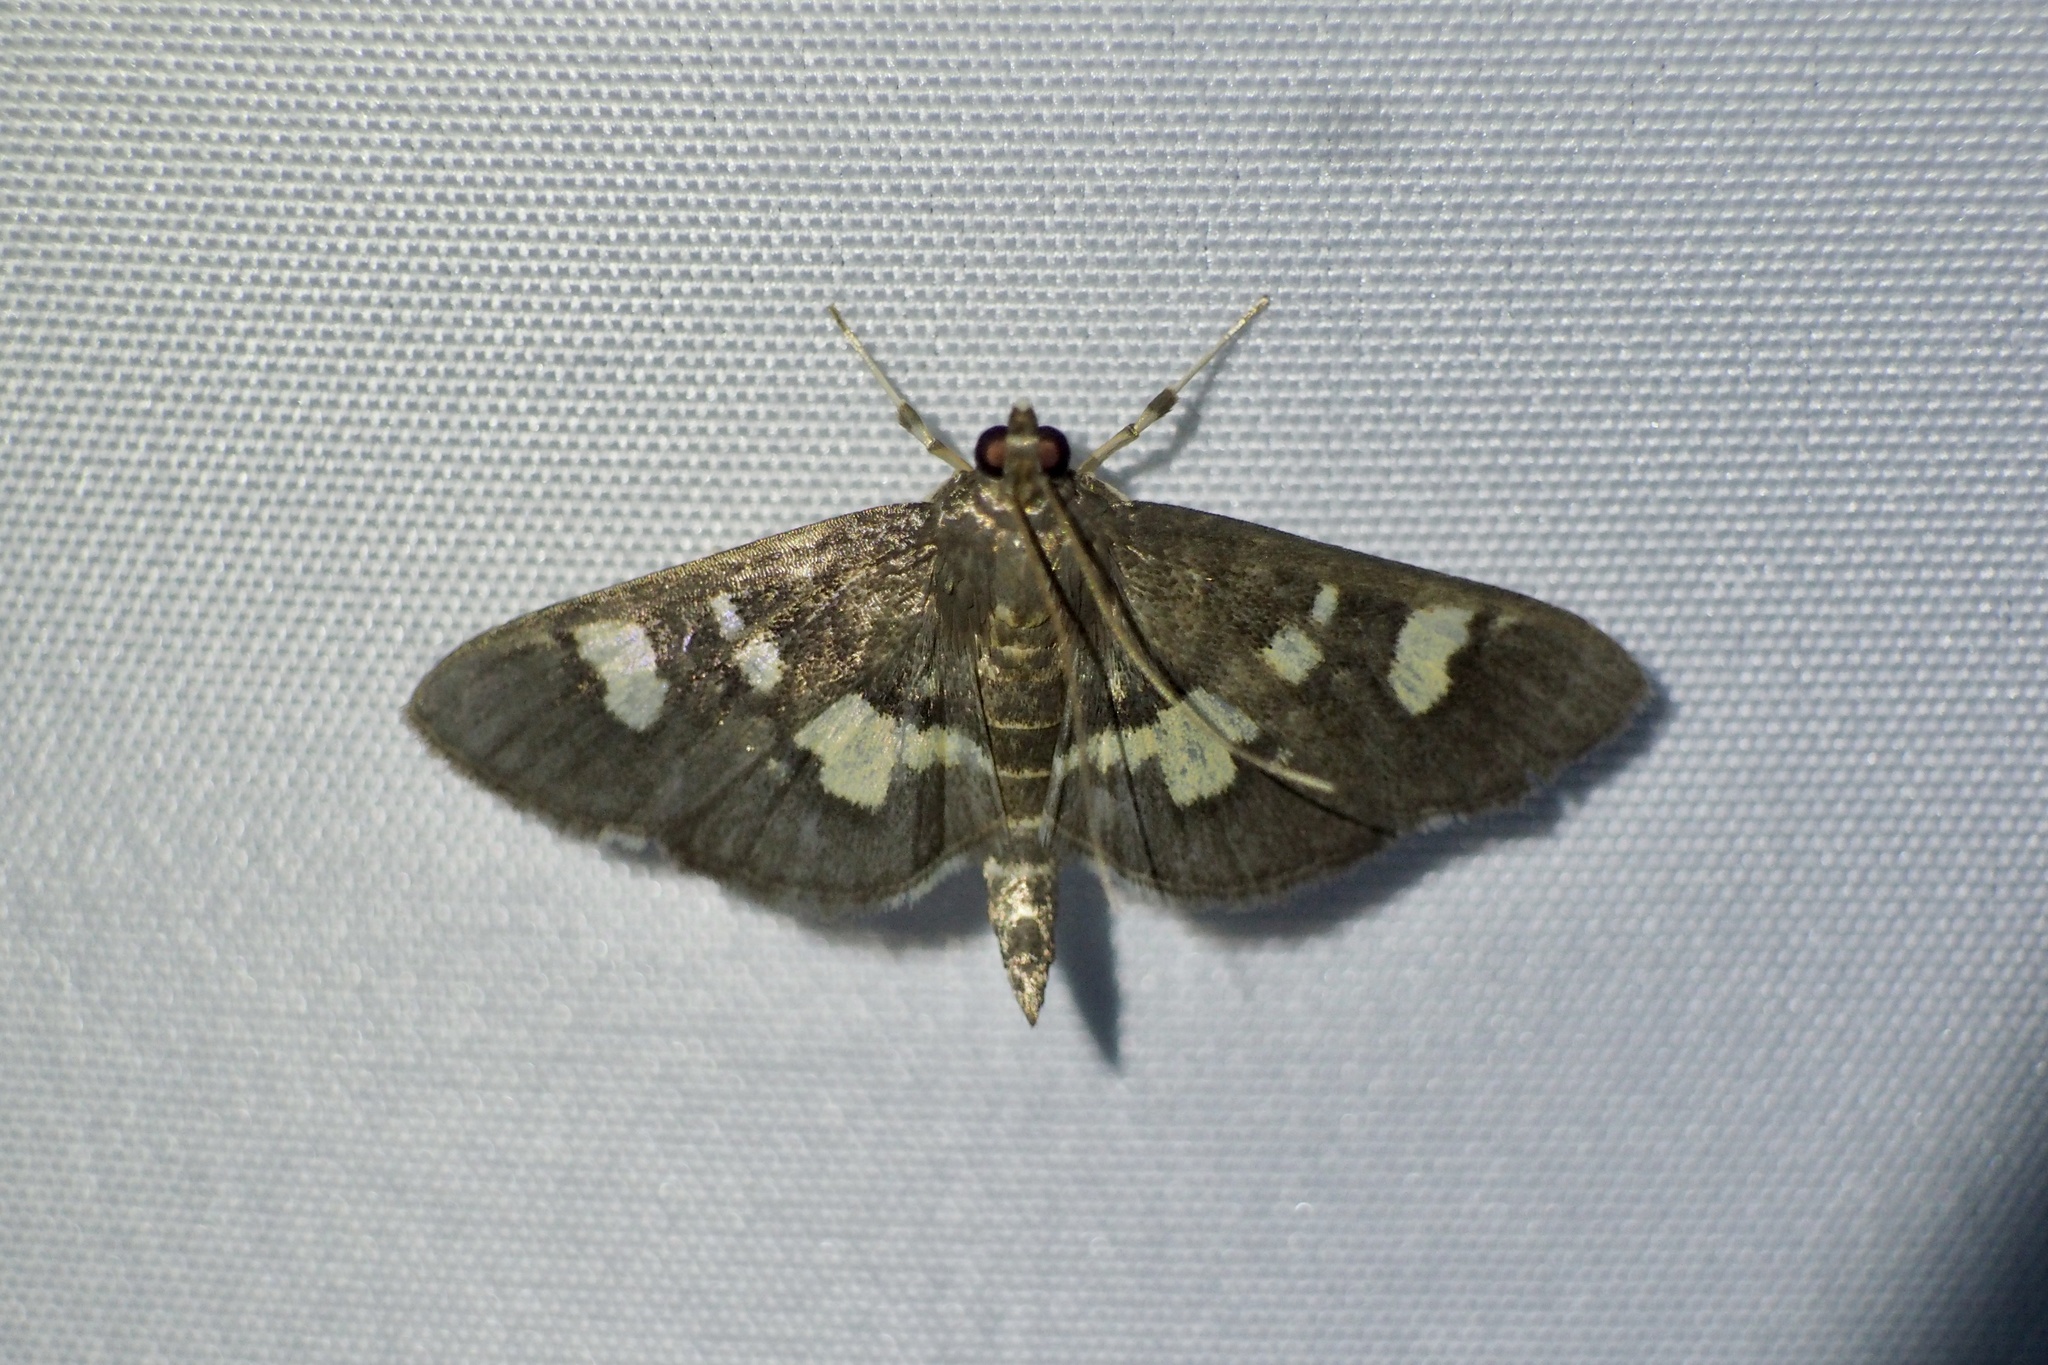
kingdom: Animalia
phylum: Arthropoda
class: Insecta
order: Lepidoptera
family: Crambidae
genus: Uresiphita
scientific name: Uresiphita tricolor
